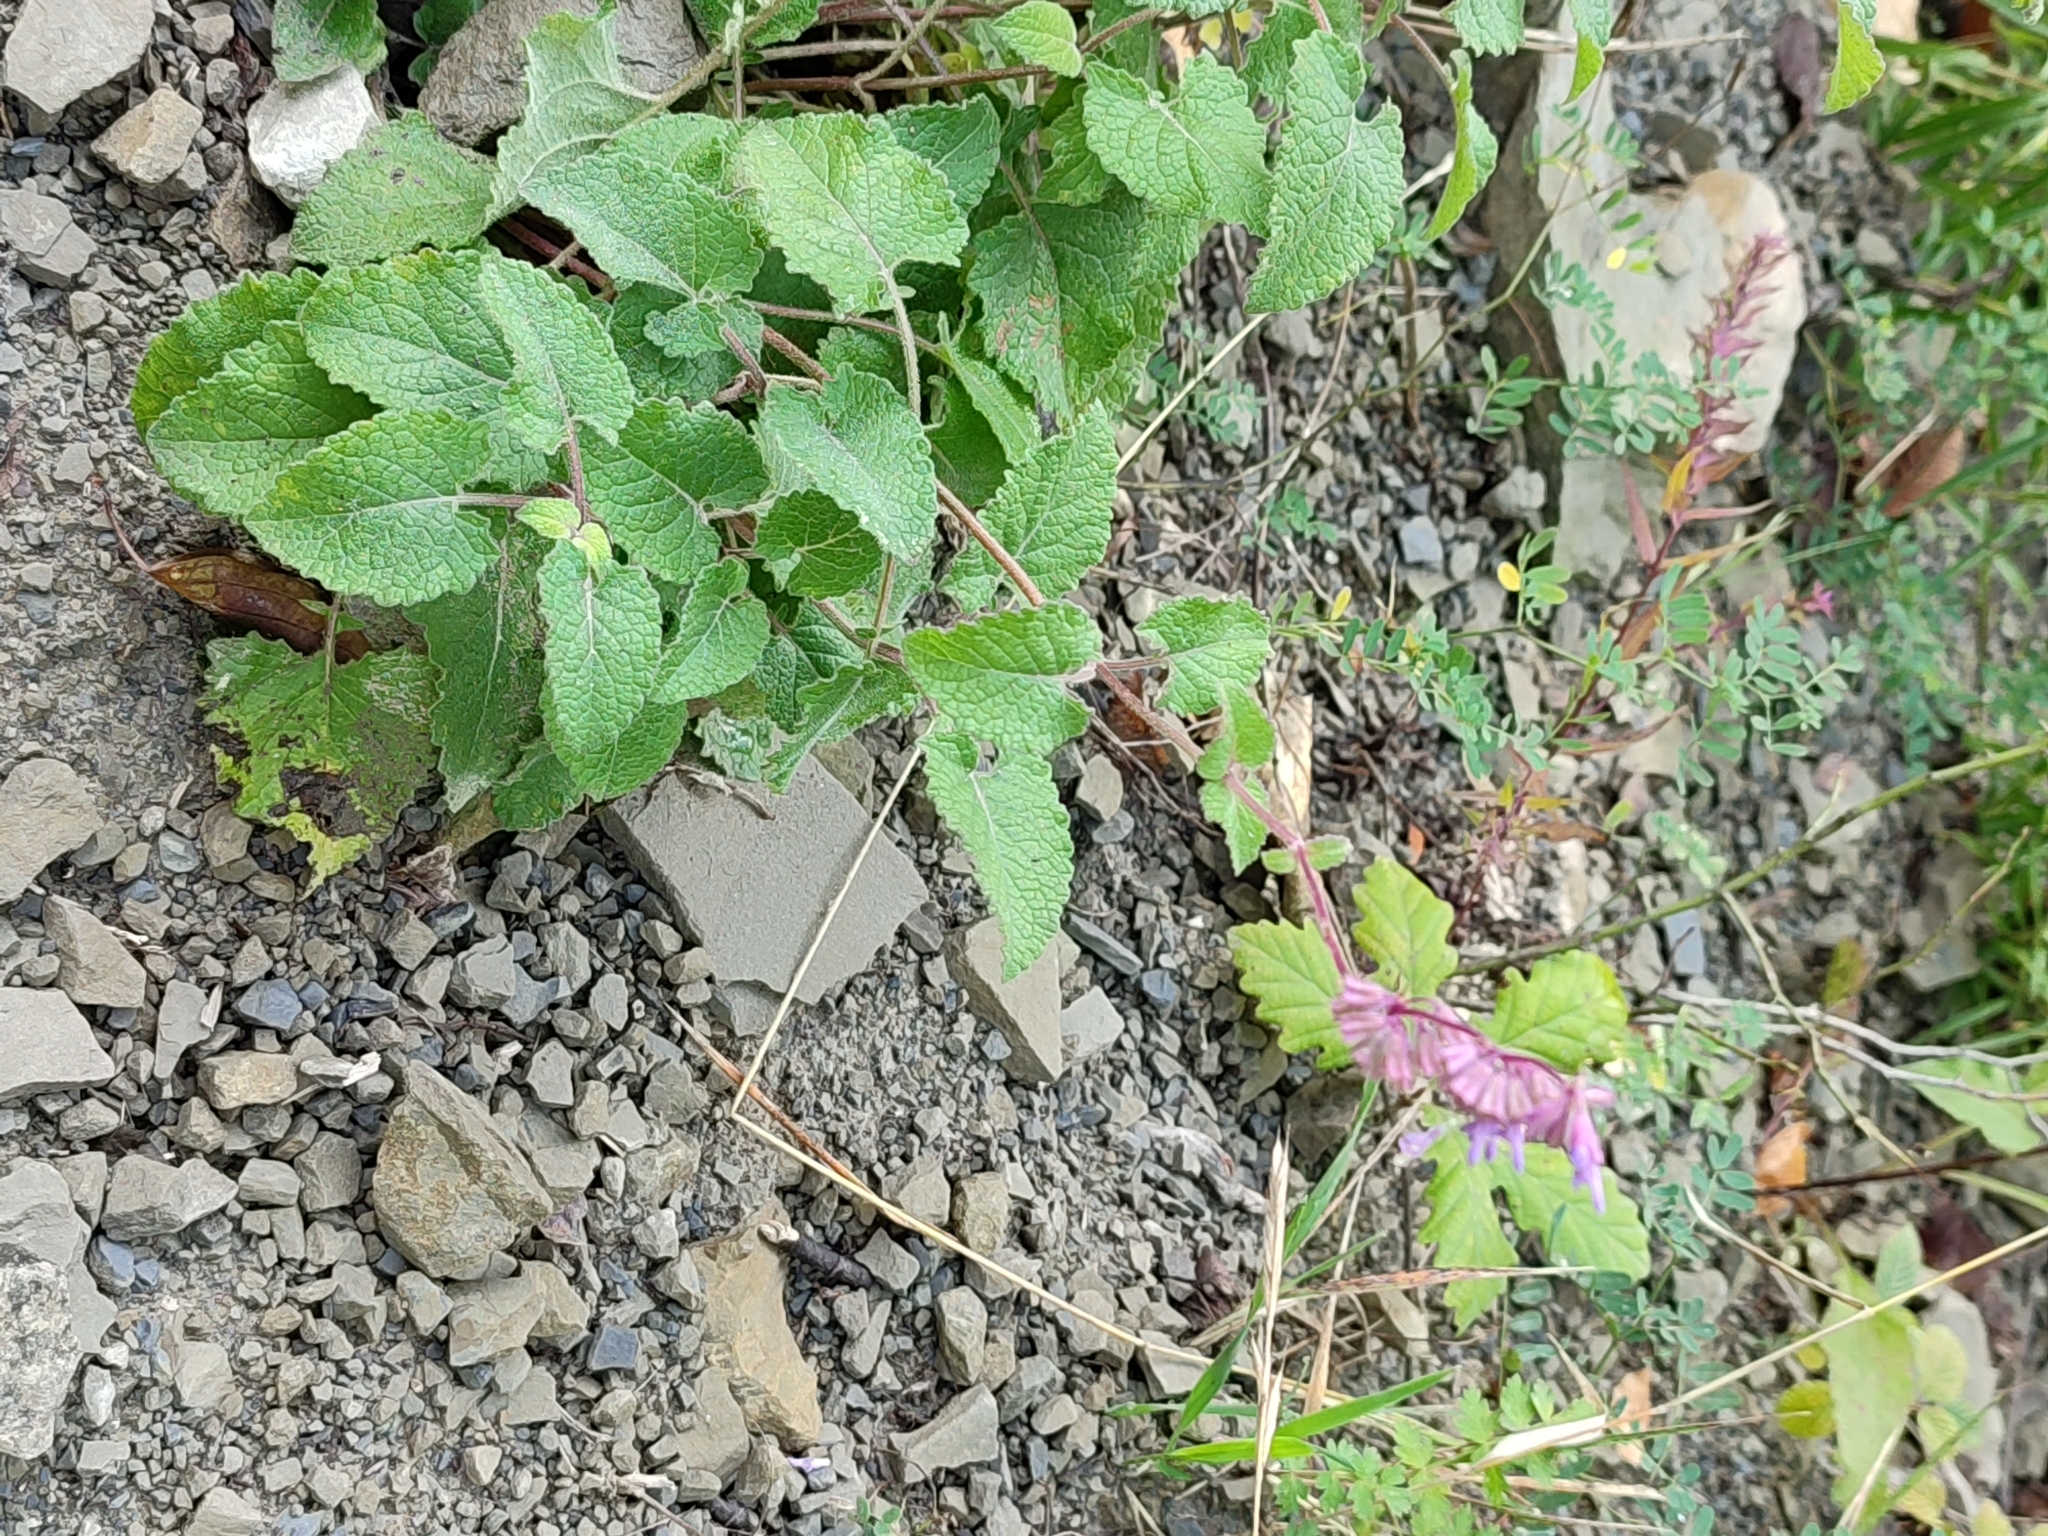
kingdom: Plantae
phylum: Tracheophyta
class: Magnoliopsida
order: Lamiales
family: Lamiaceae
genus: Salvia
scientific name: Salvia verticillata
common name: Whorled clary
